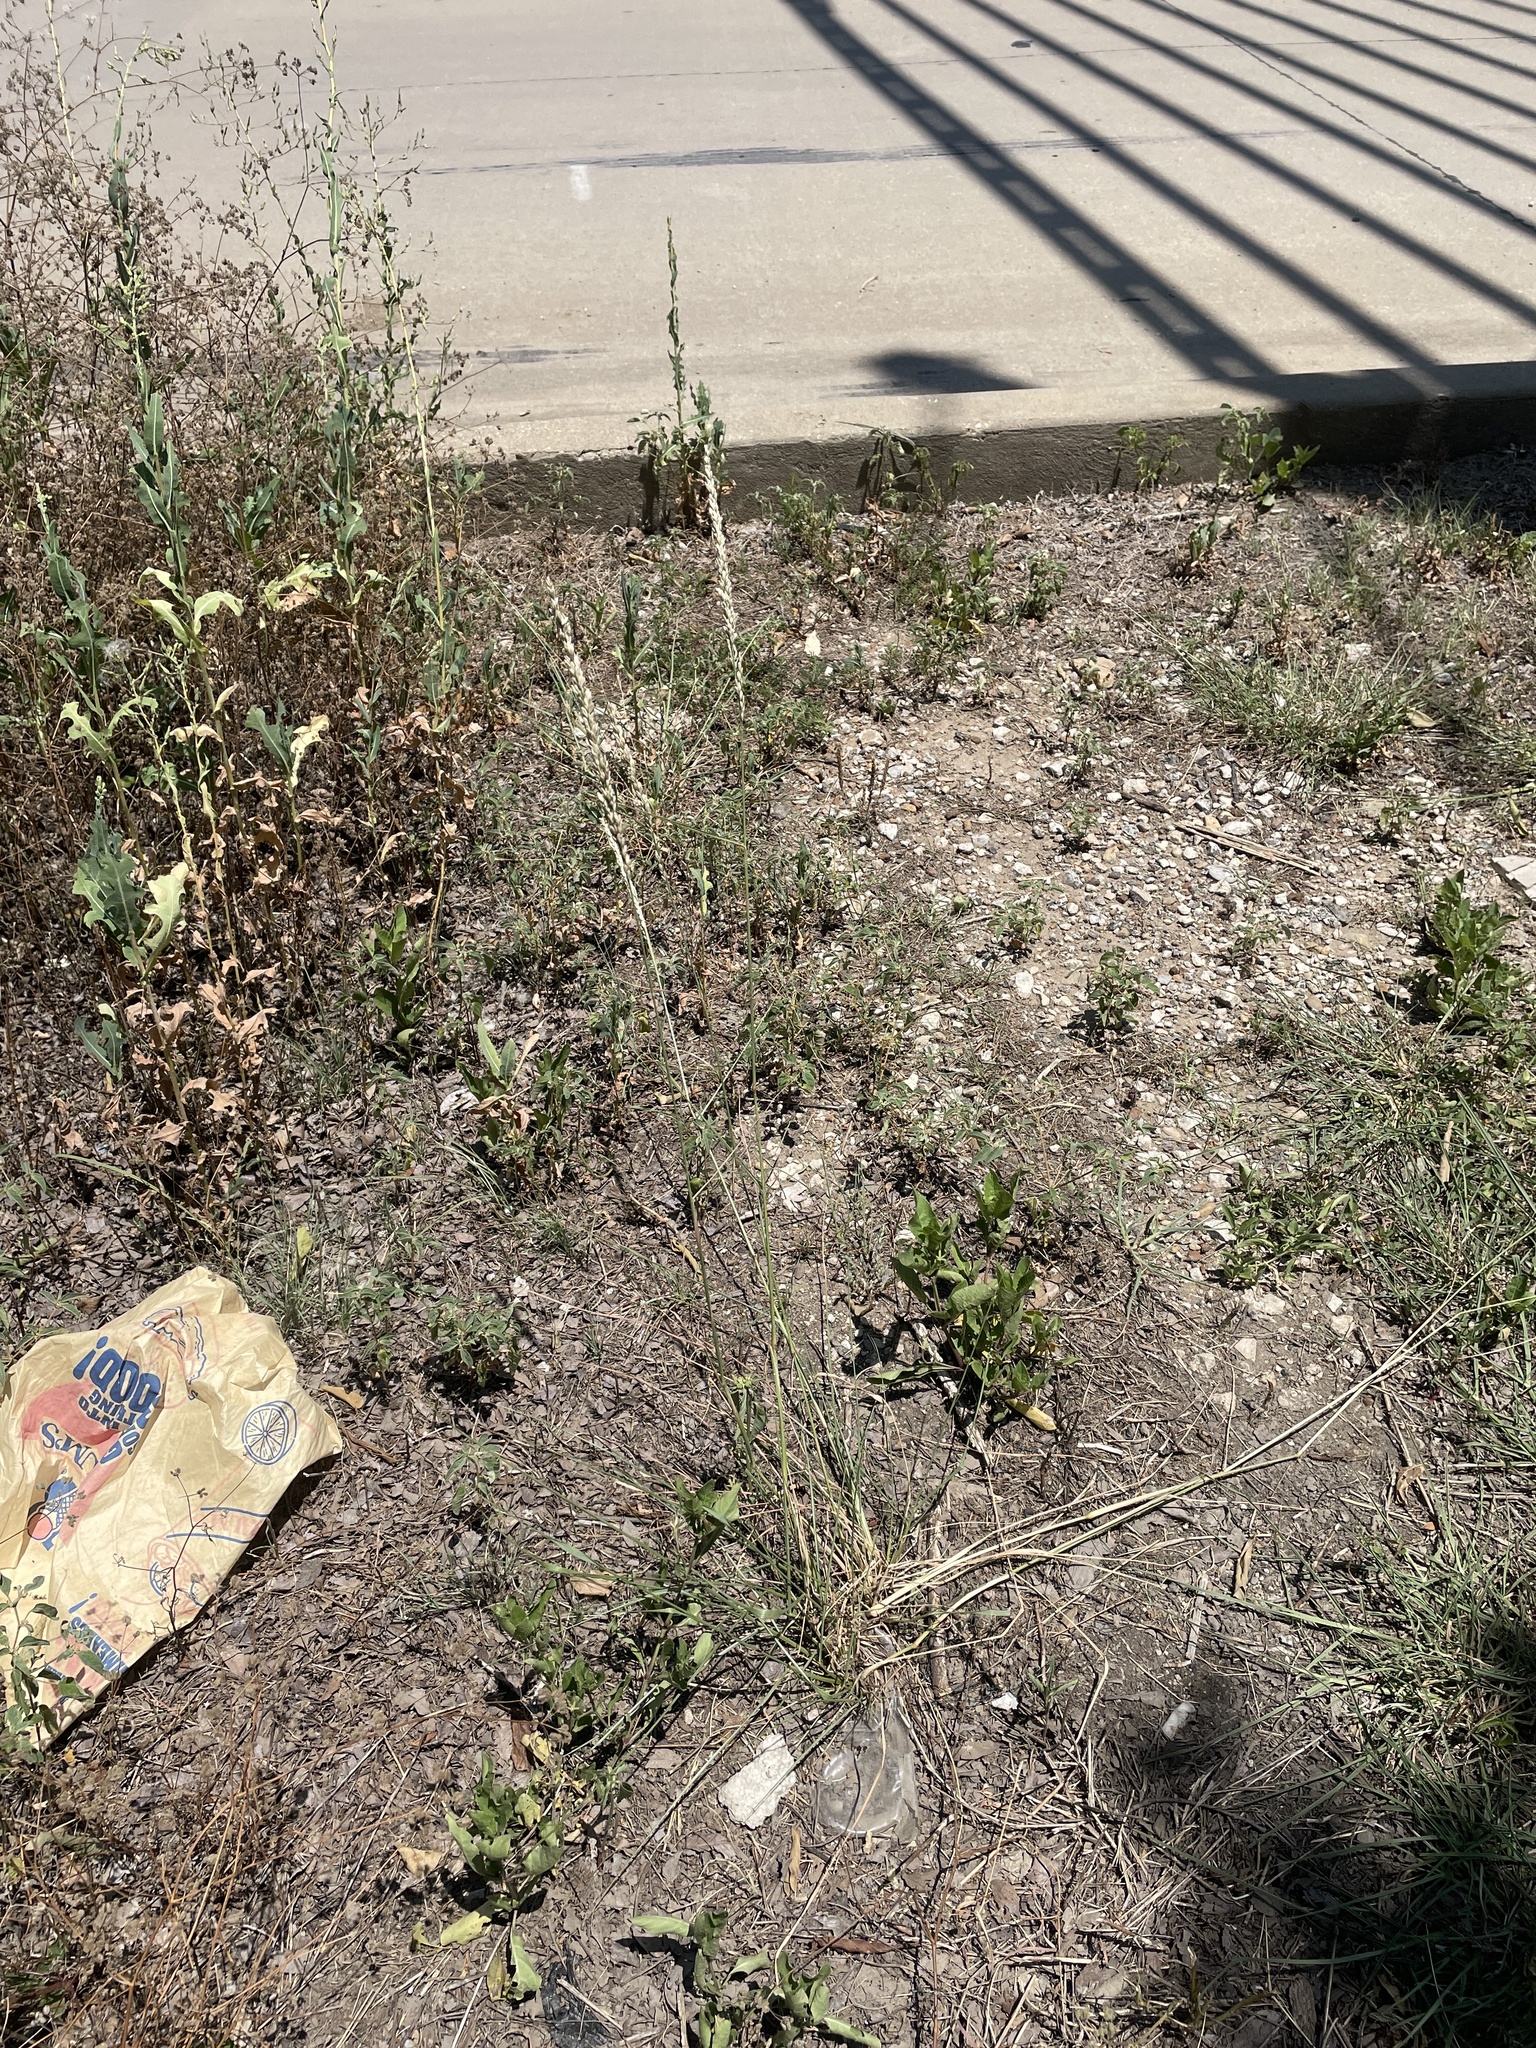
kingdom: Plantae
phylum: Tracheophyta
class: Liliopsida
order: Poales
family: Poaceae
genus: Tridens
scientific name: Tridens albescens
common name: White tridens
